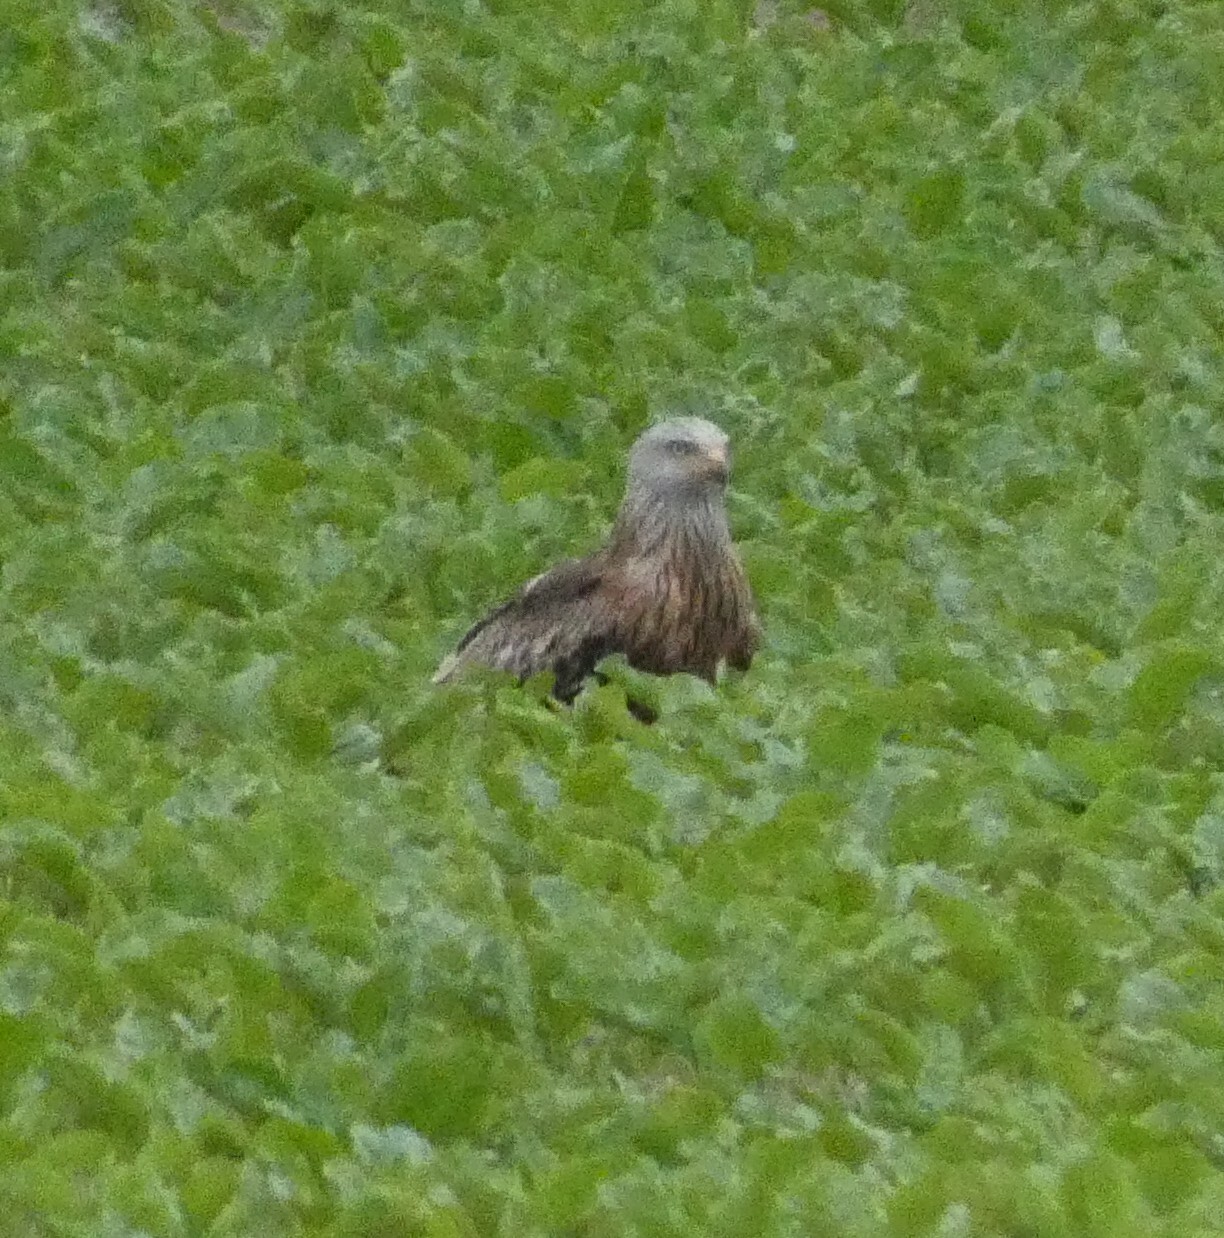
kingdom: Animalia
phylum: Chordata
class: Aves
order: Accipitriformes
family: Accipitridae
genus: Milvus
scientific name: Milvus milvus
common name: Red kite
